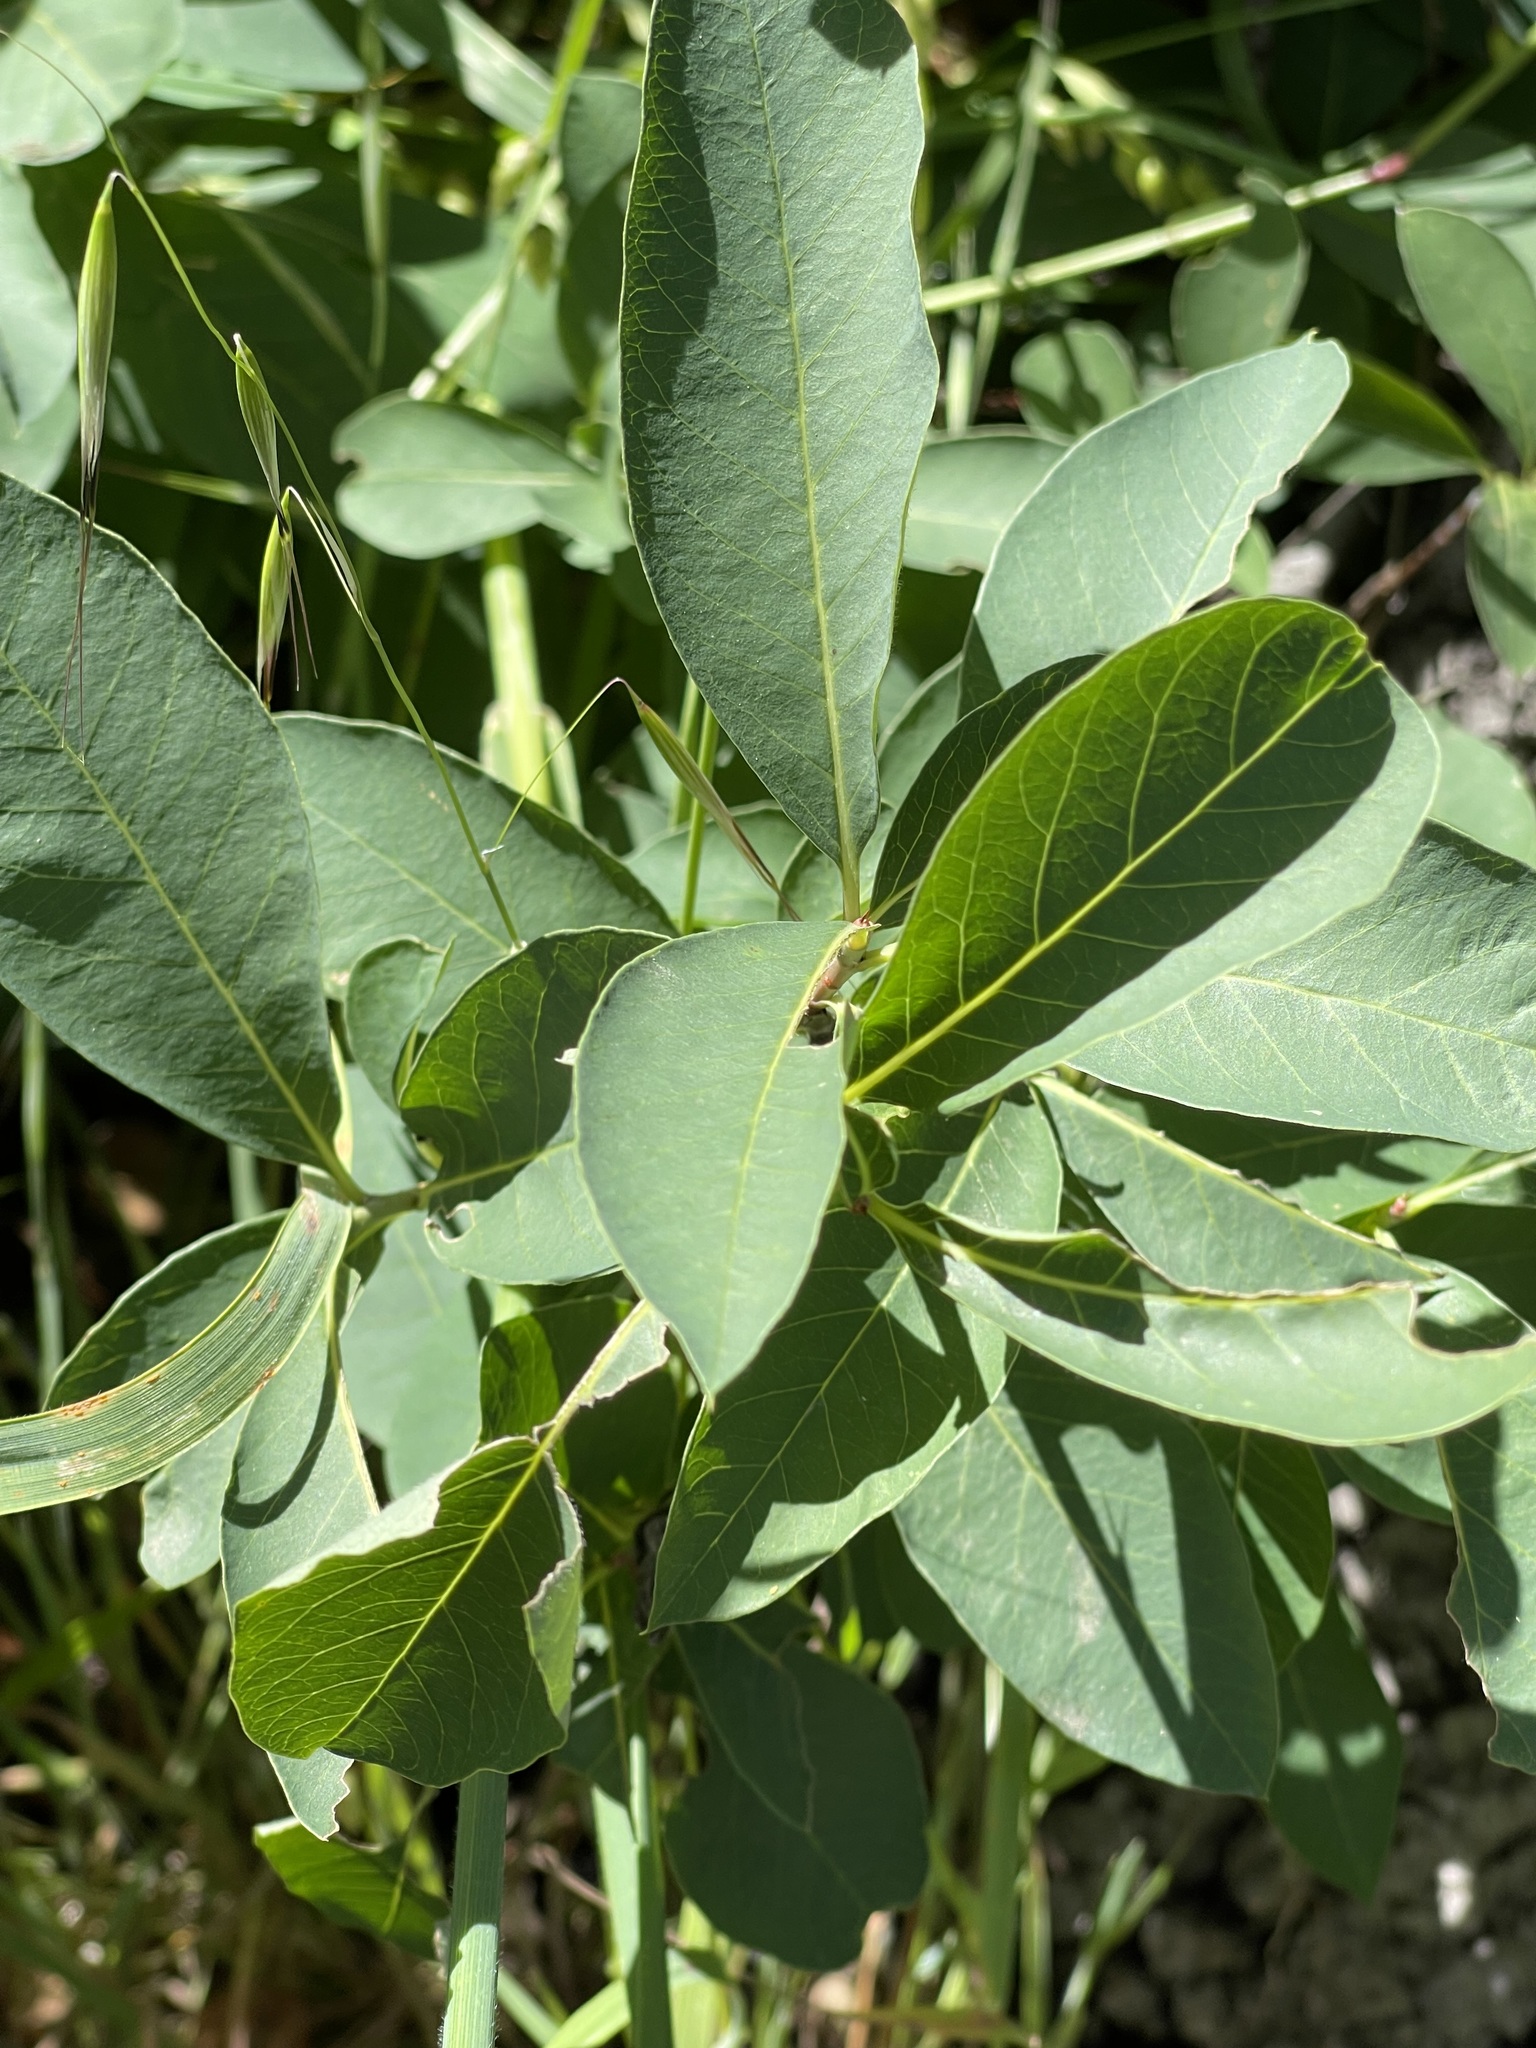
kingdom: Plantae
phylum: Tracheophyta
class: Magnoliopsida
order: Rosales
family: Rosaceae
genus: Oemleria
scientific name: Oemleria cerasiformis
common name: Osoberry
